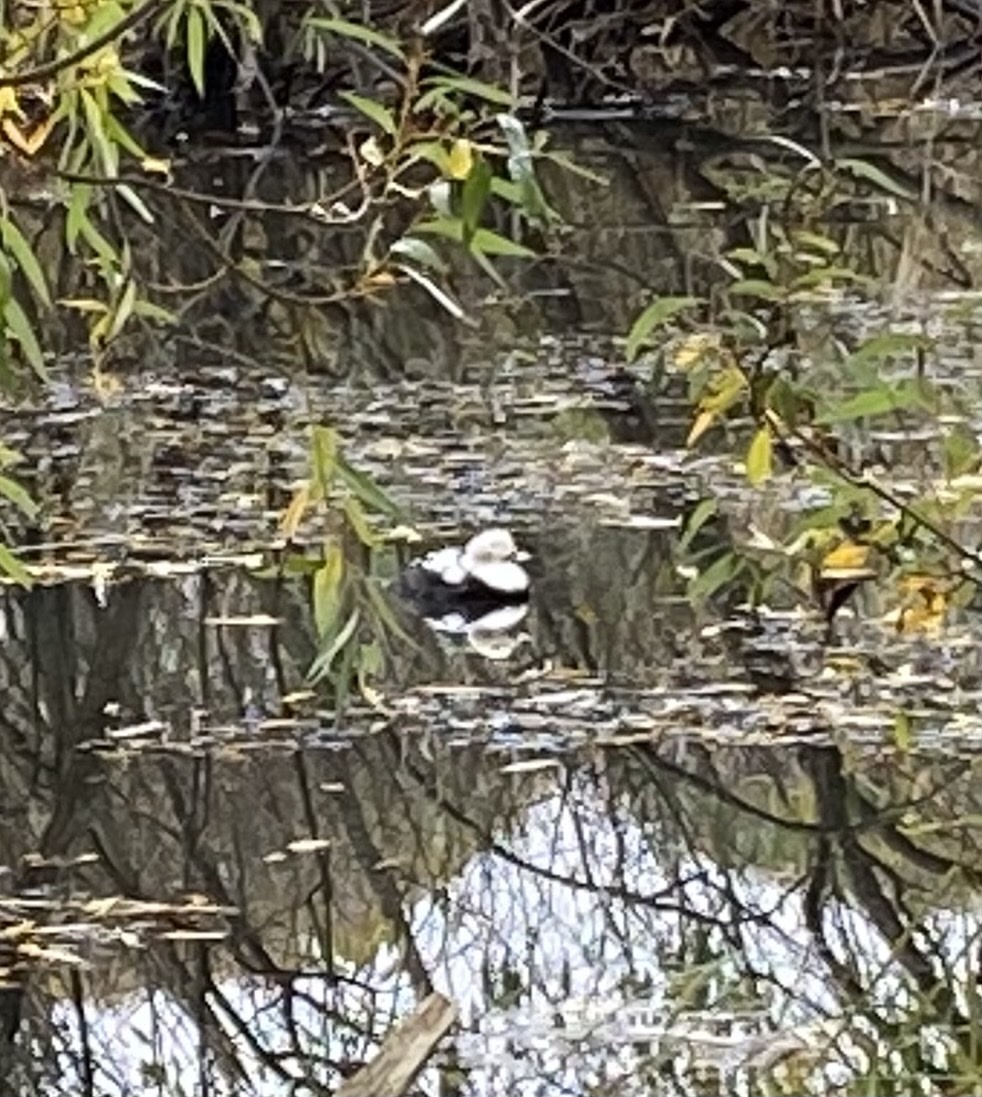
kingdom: Animalia
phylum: Chordata
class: Aves
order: Anseriformes
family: Anatidae
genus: Clangula
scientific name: Clangula hyemalis
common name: Long-tailed duck
